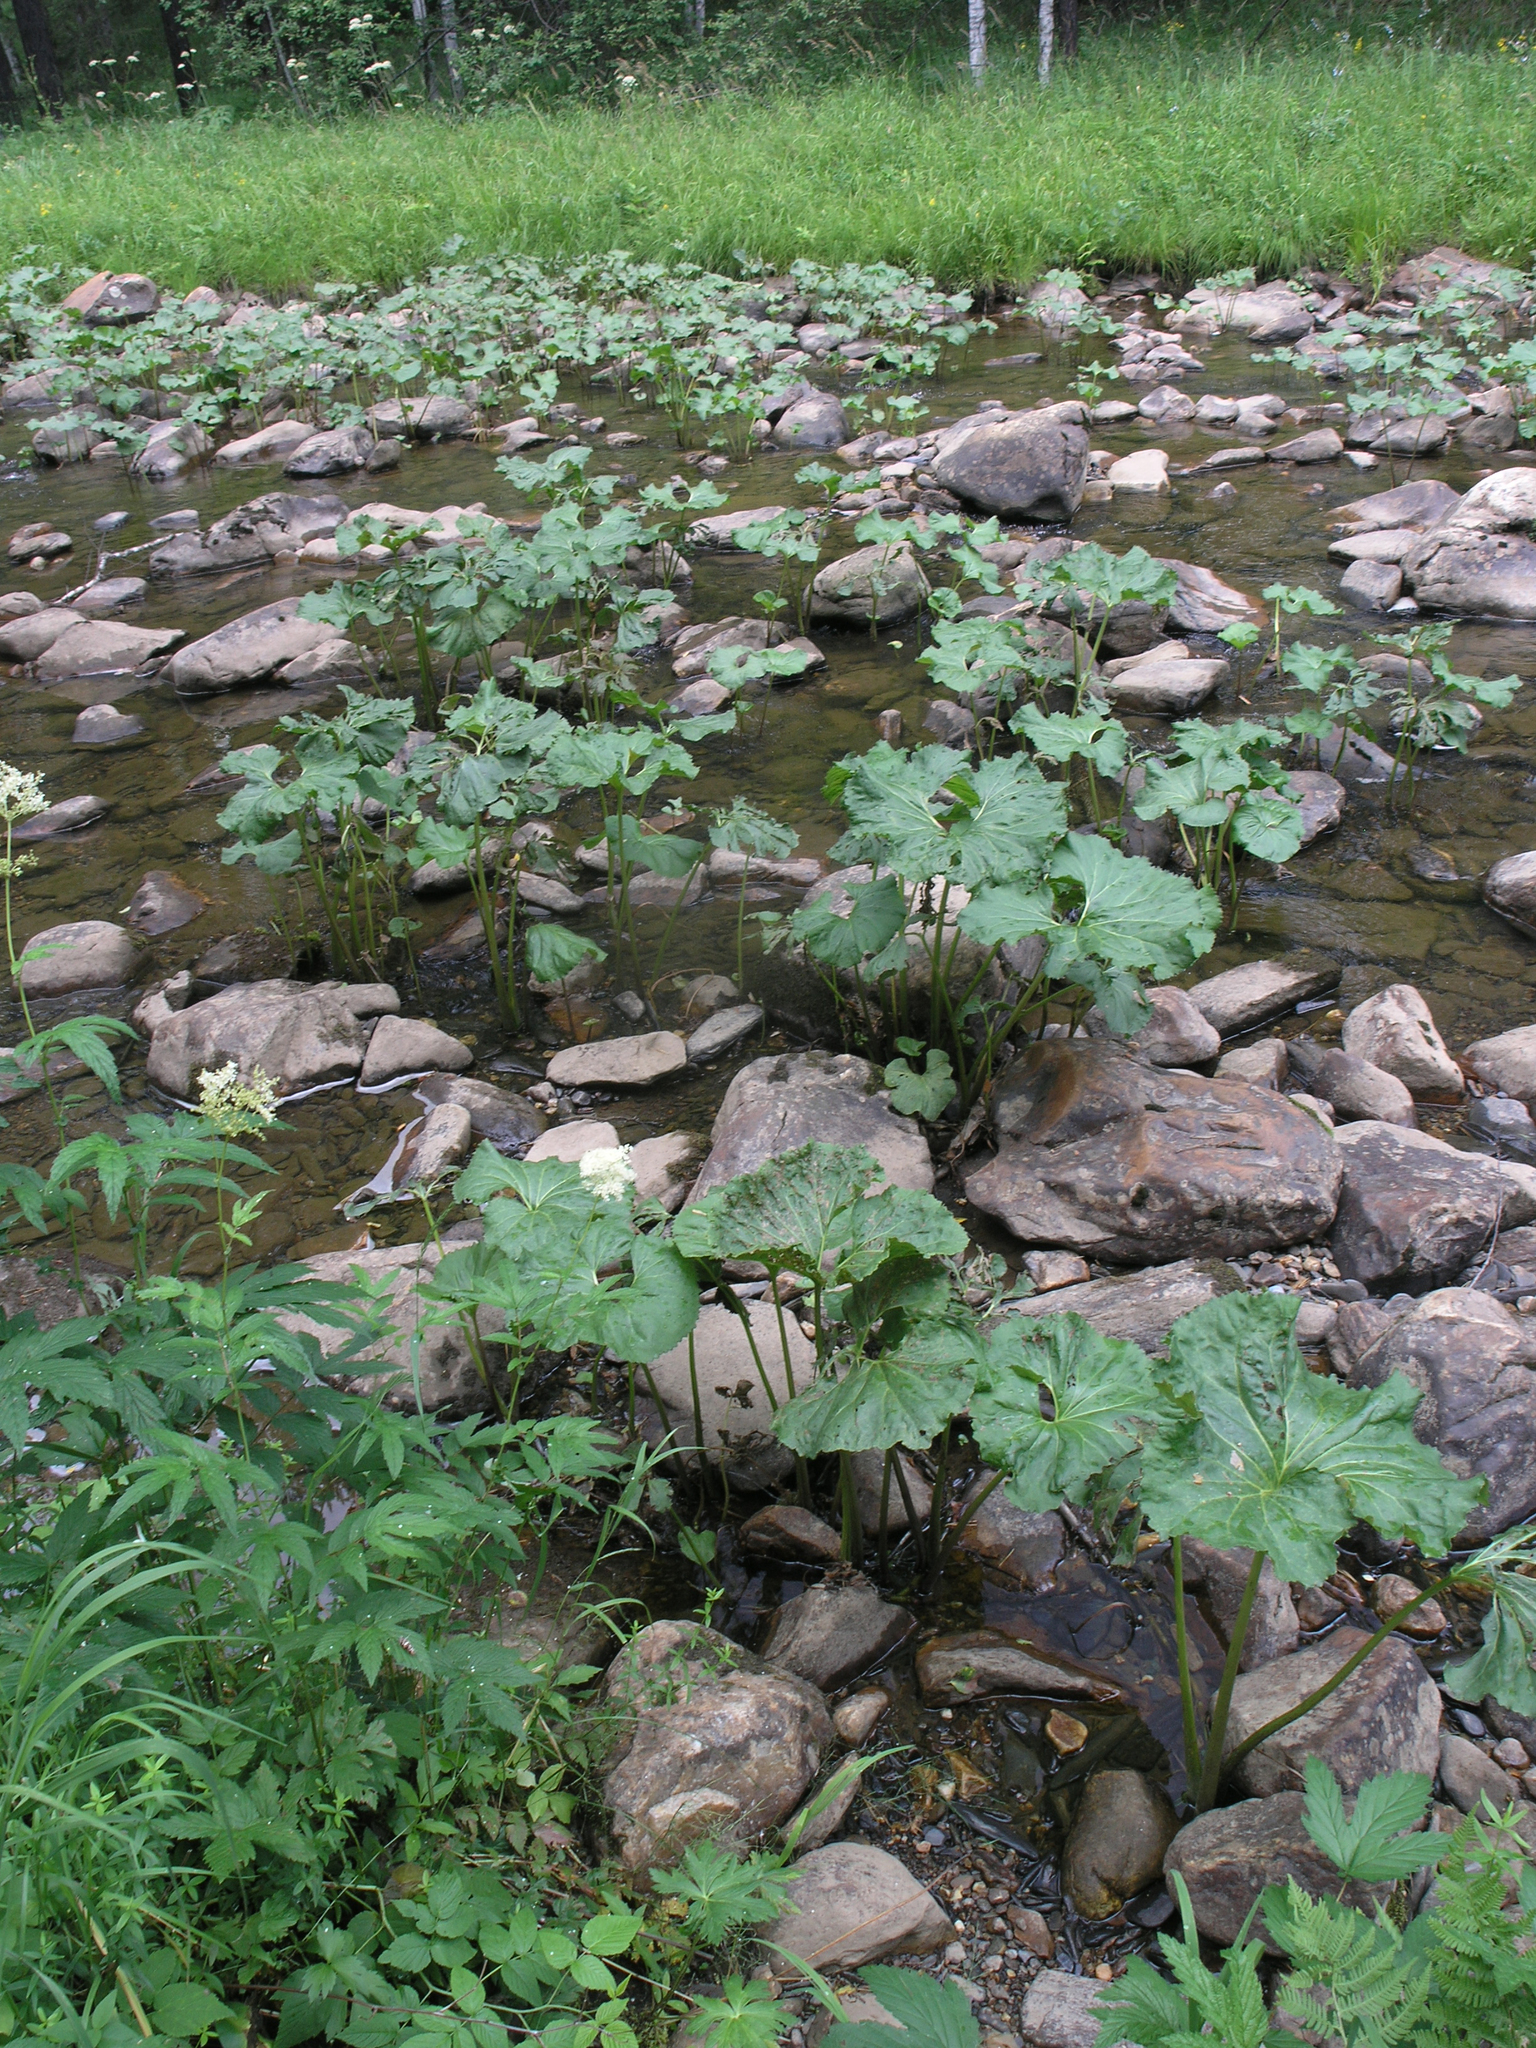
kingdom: Plantae
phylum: Tracheophyta
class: Magnoliopsida
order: Asterales
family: Asteraceae
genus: Petasites
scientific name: Petasites radiatus
